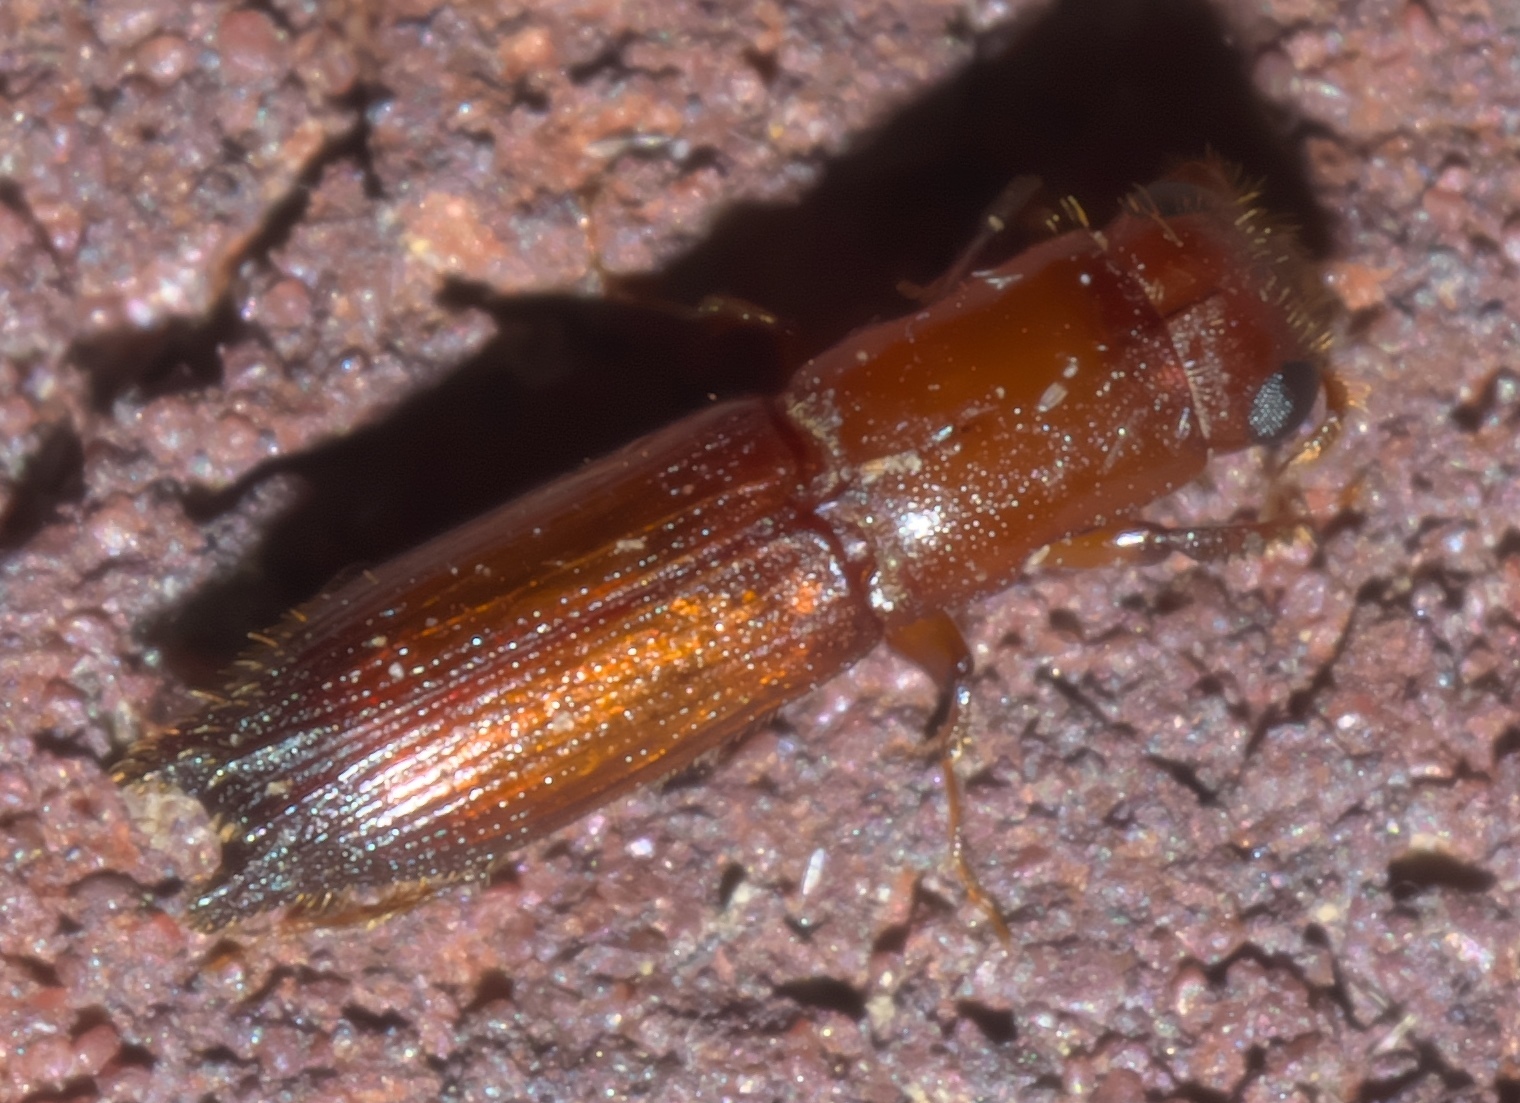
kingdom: Animalia
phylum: Arthropoda
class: Insecta
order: Coleoptera
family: Curculionidae
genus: Euplatypus
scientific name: Euplatypus compositus
